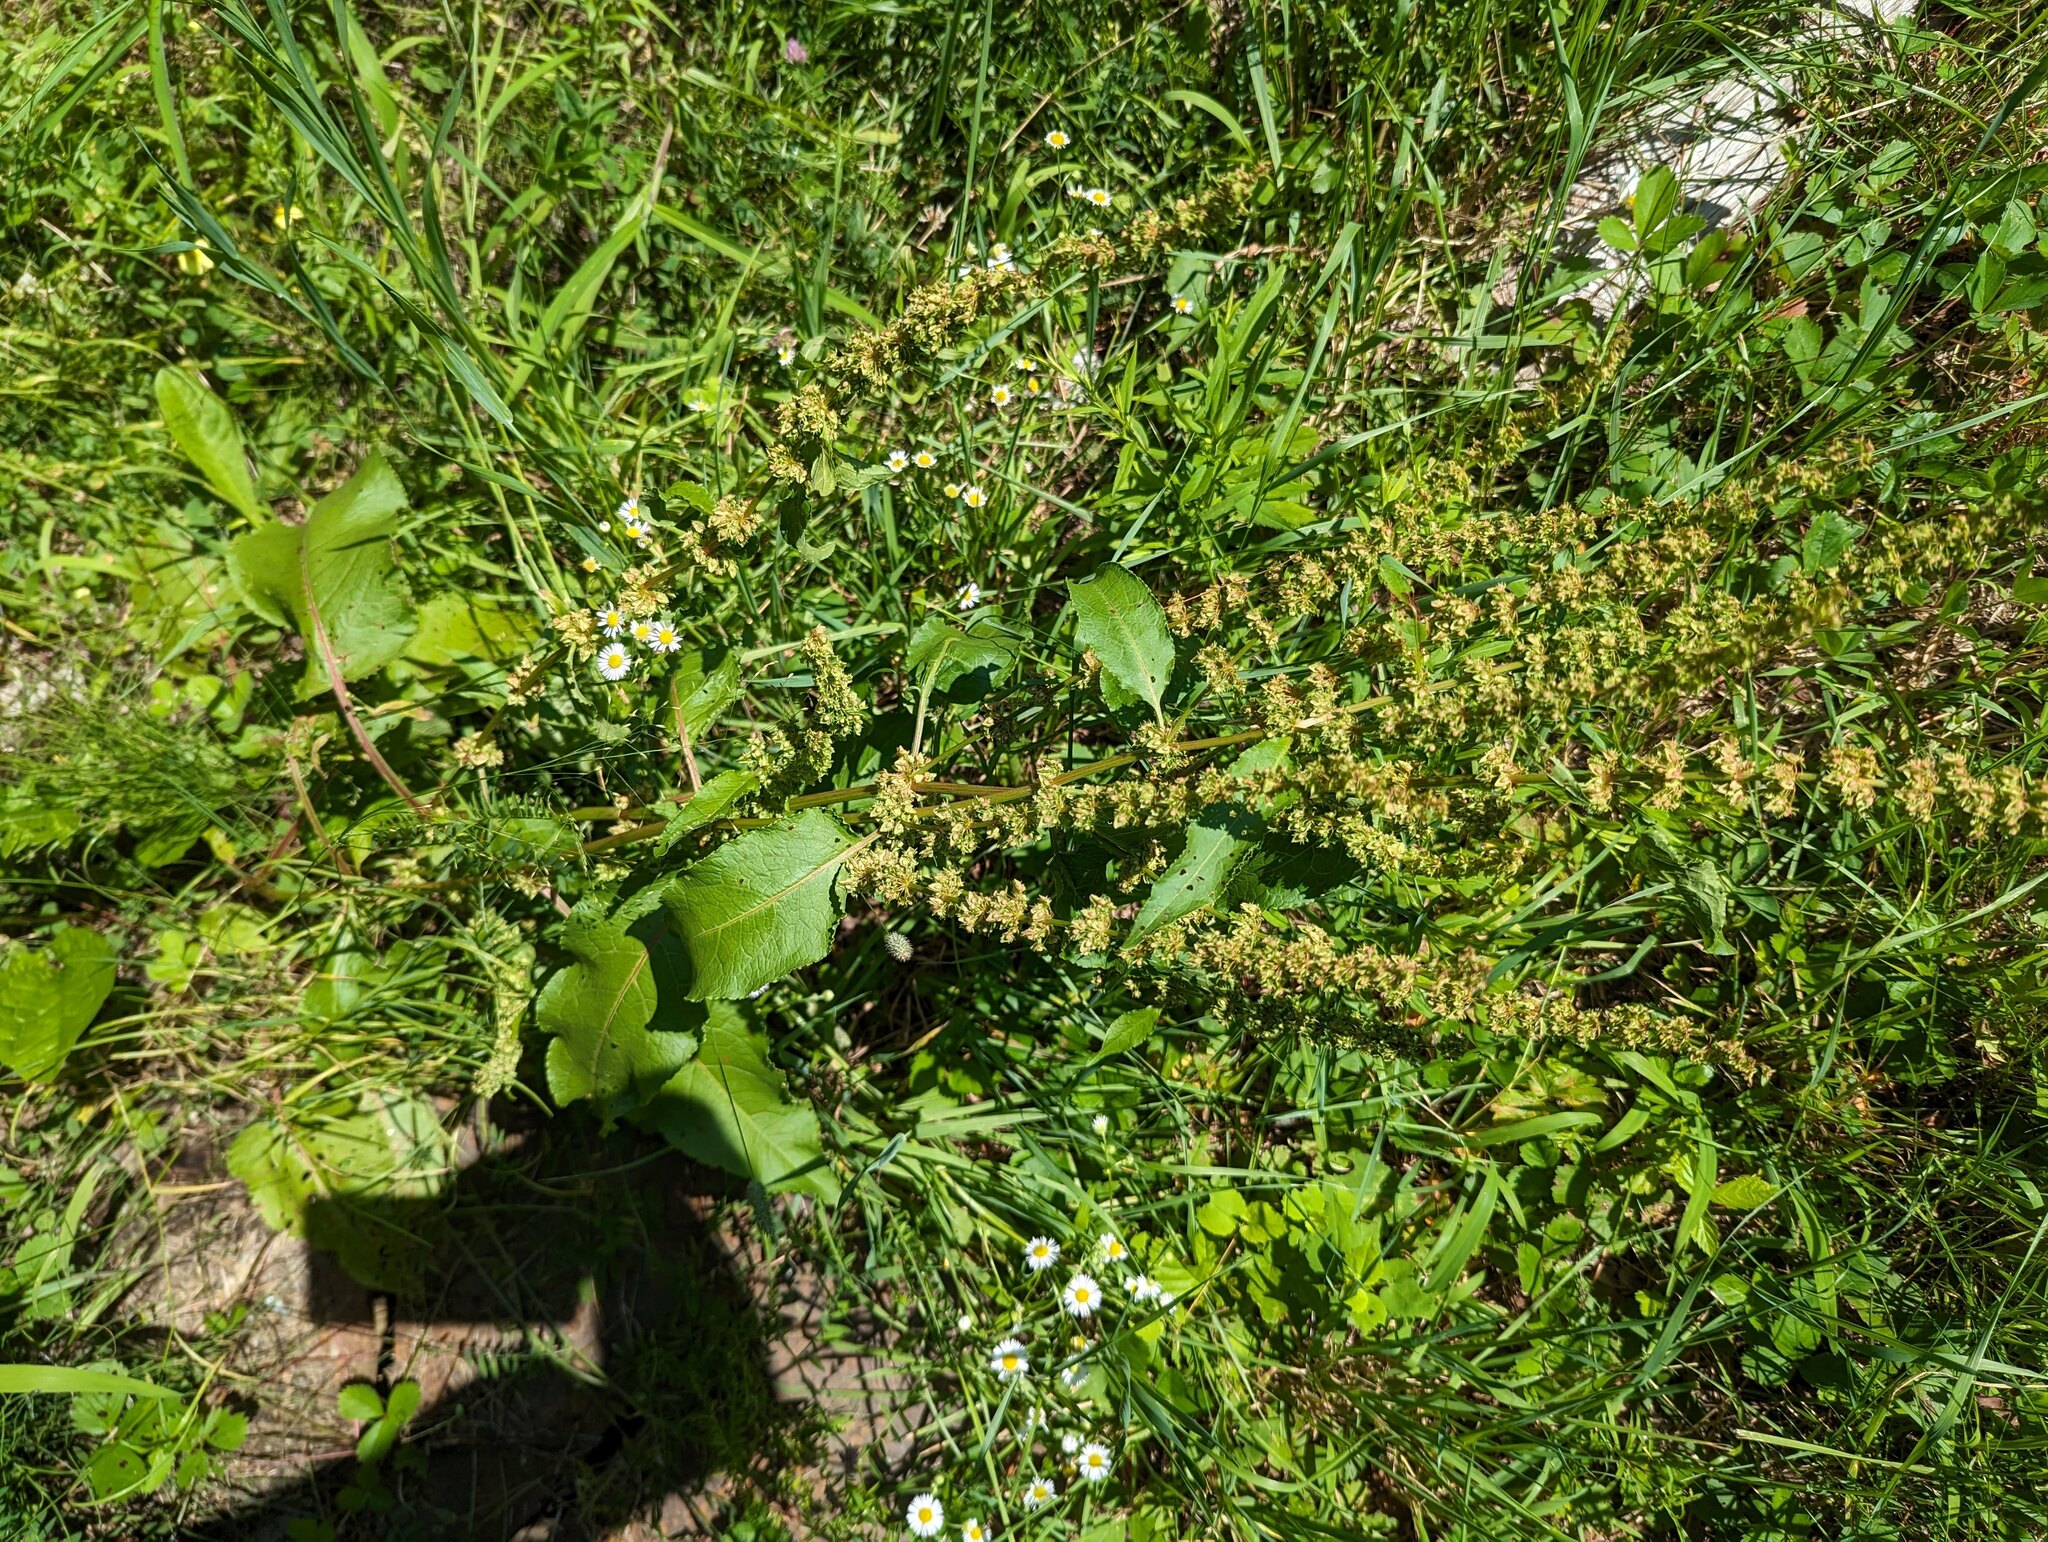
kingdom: Plantae
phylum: Tracheophyta
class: Magnoliopsida
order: Caryophyllales
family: Polygonaceae
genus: Rumex
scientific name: Rumex obtusifolius
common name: Bitter dock
